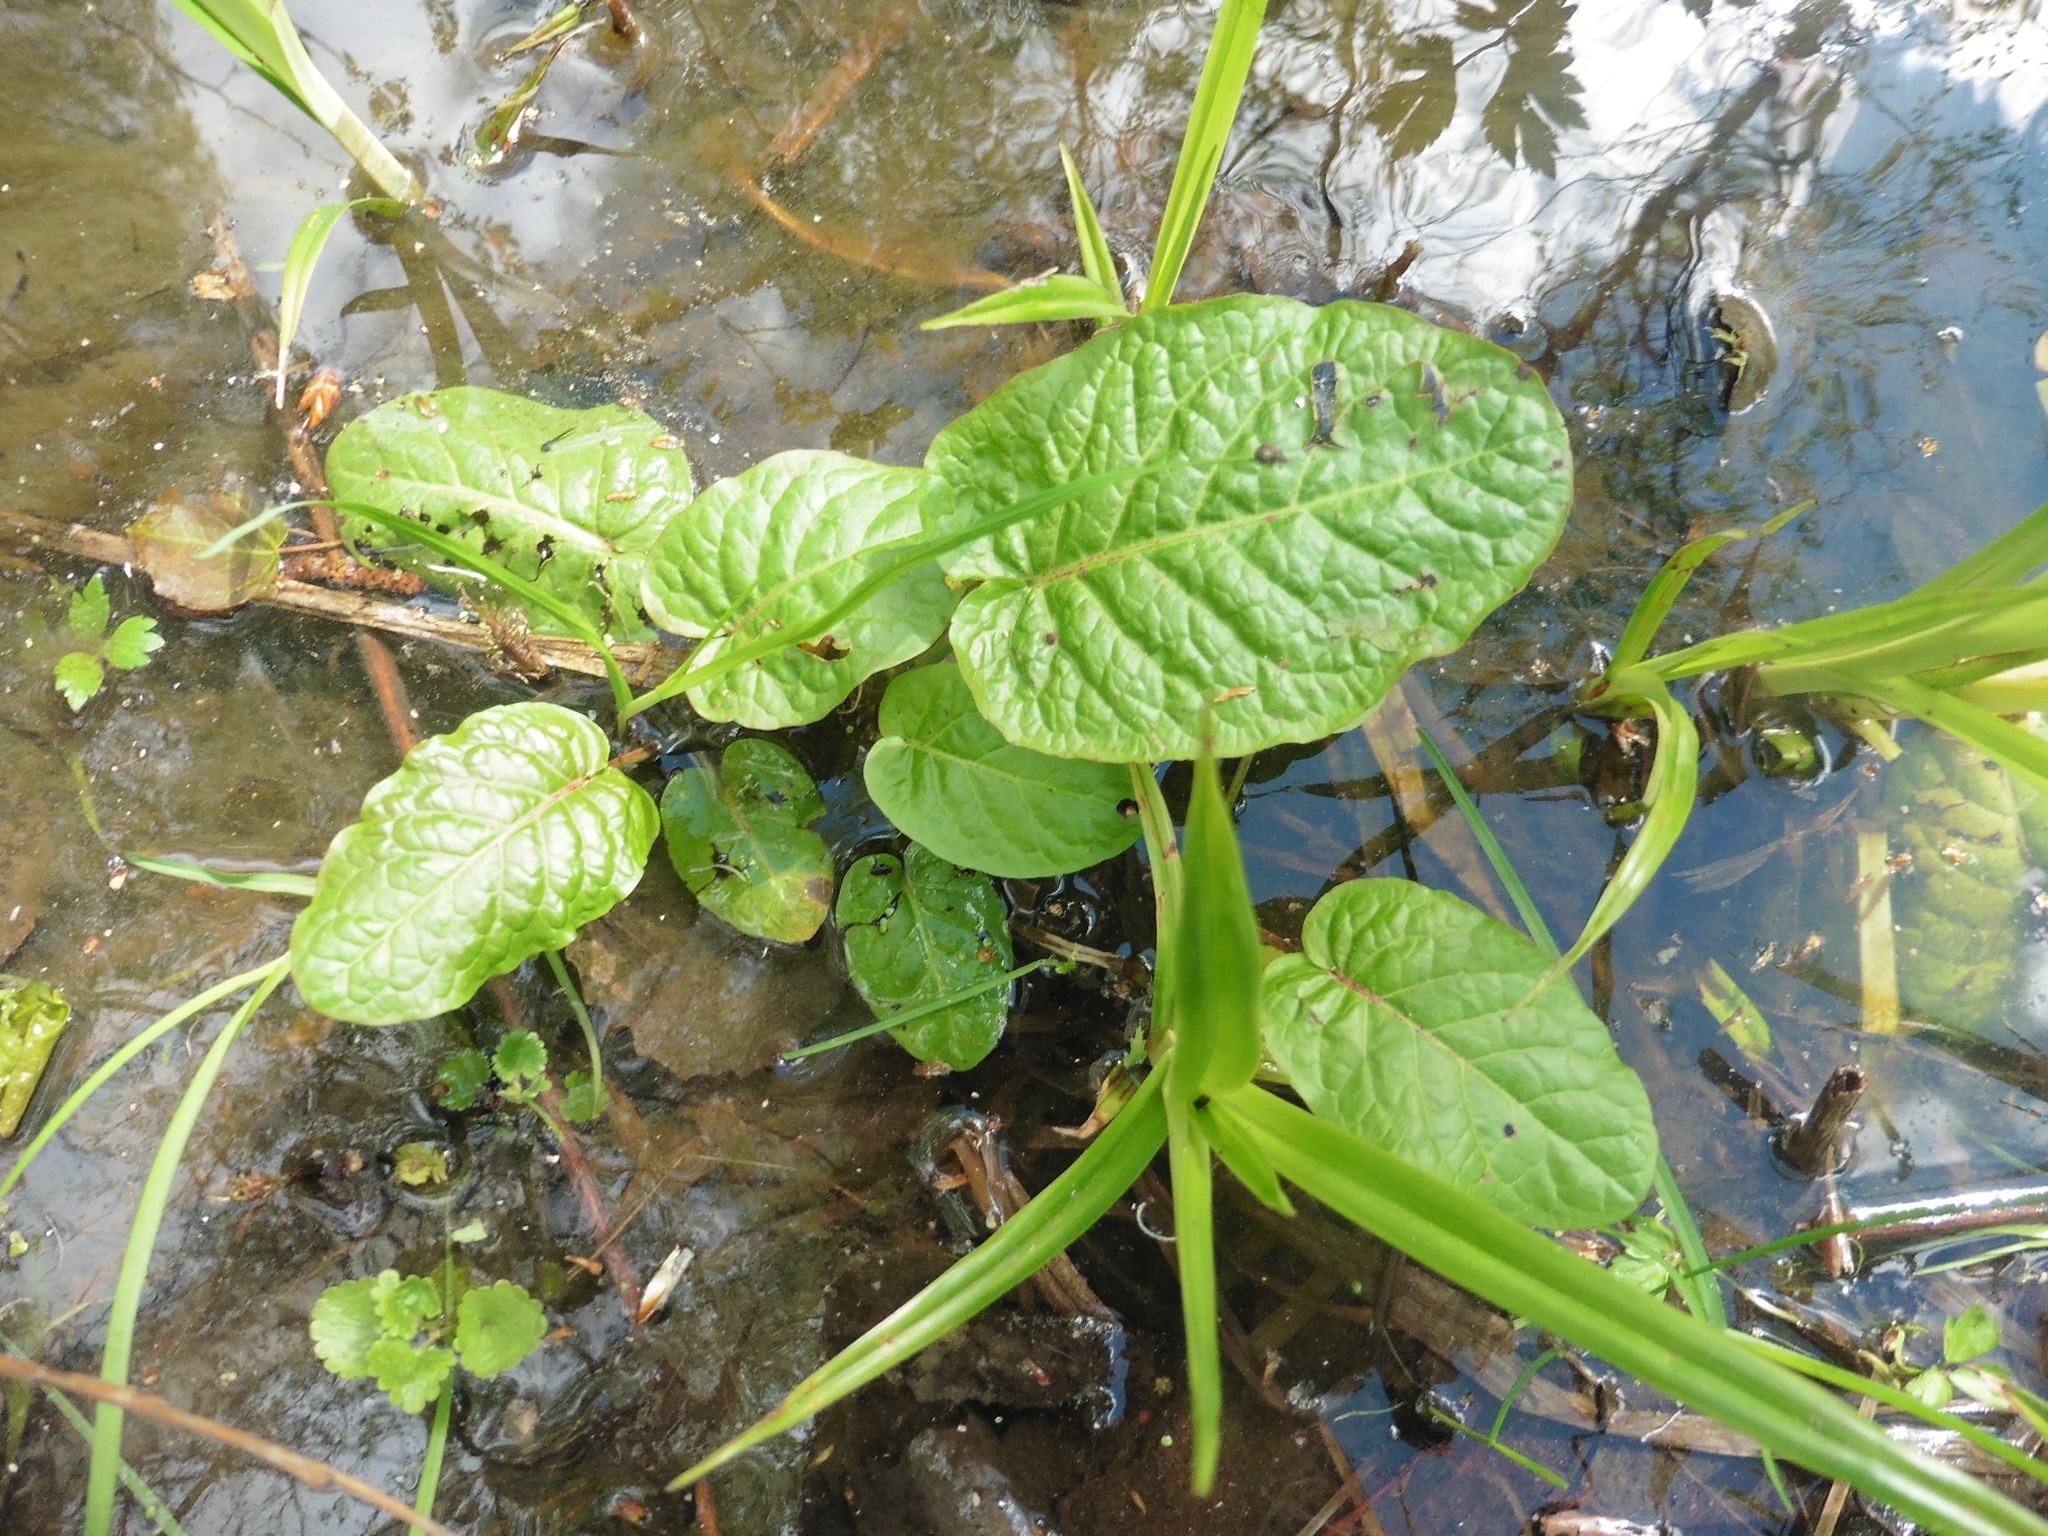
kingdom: Plantae
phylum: Tracheophyta
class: Magnoliopsida
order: Caryophyllales
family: Polygonaceae
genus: Rumex
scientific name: Rumex obtusifolius
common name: Bitter dock
